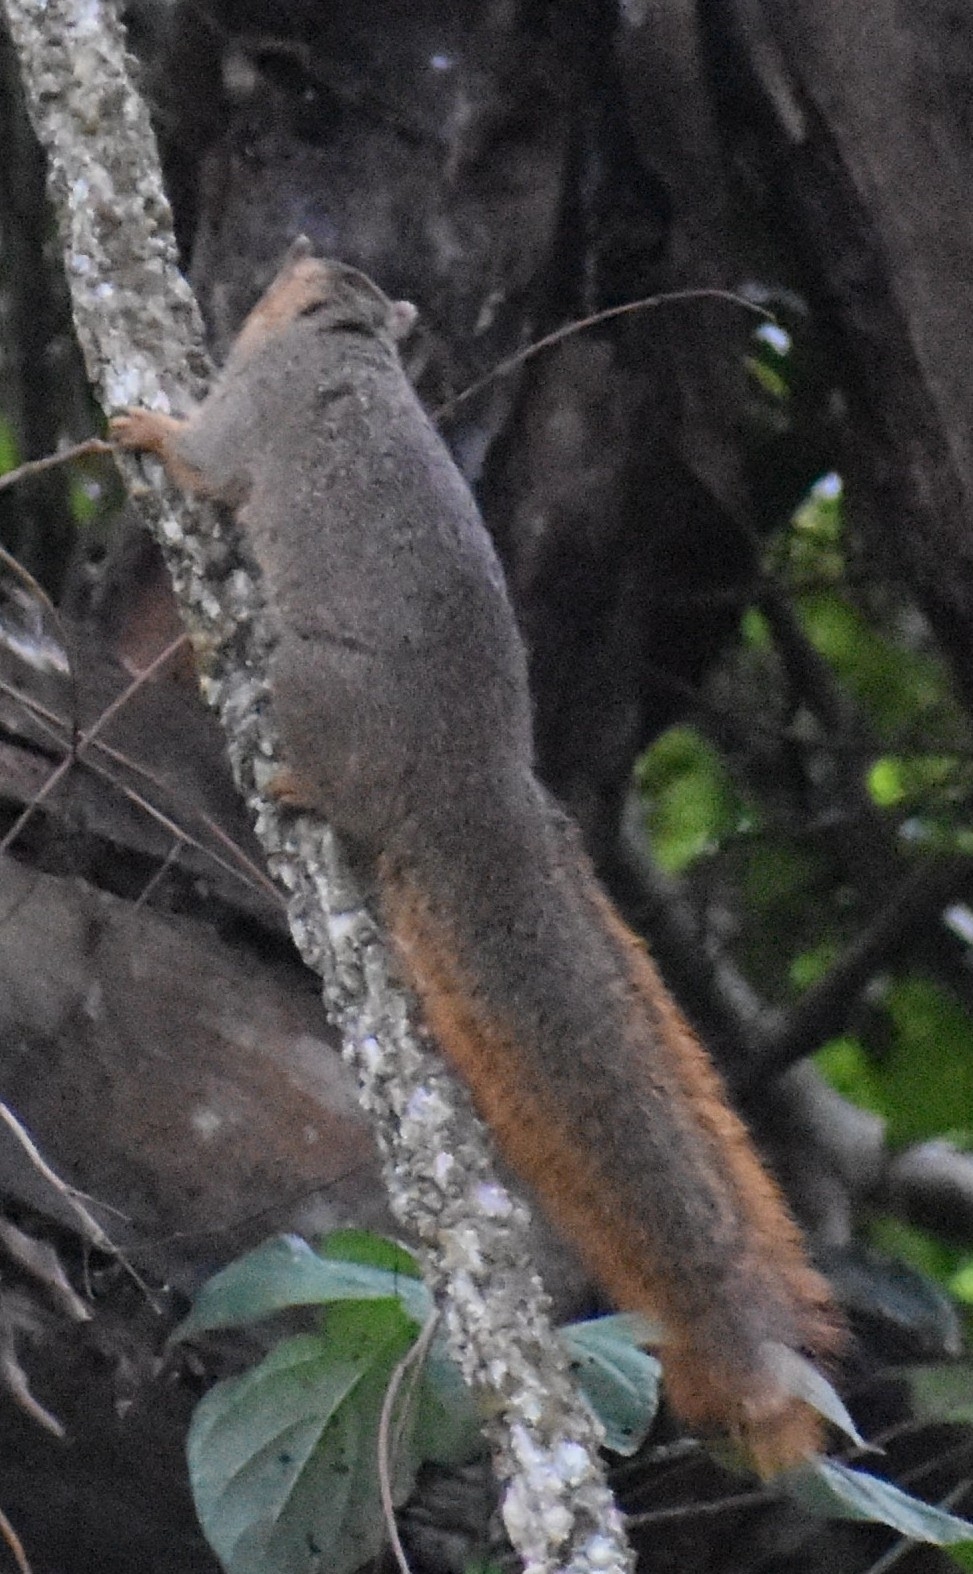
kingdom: Animalia
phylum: Chordata
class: Mammalia
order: Rodentia
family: Sciuridae
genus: Paraxerus
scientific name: Paraxerus palliatus
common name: Red bush squirrel
